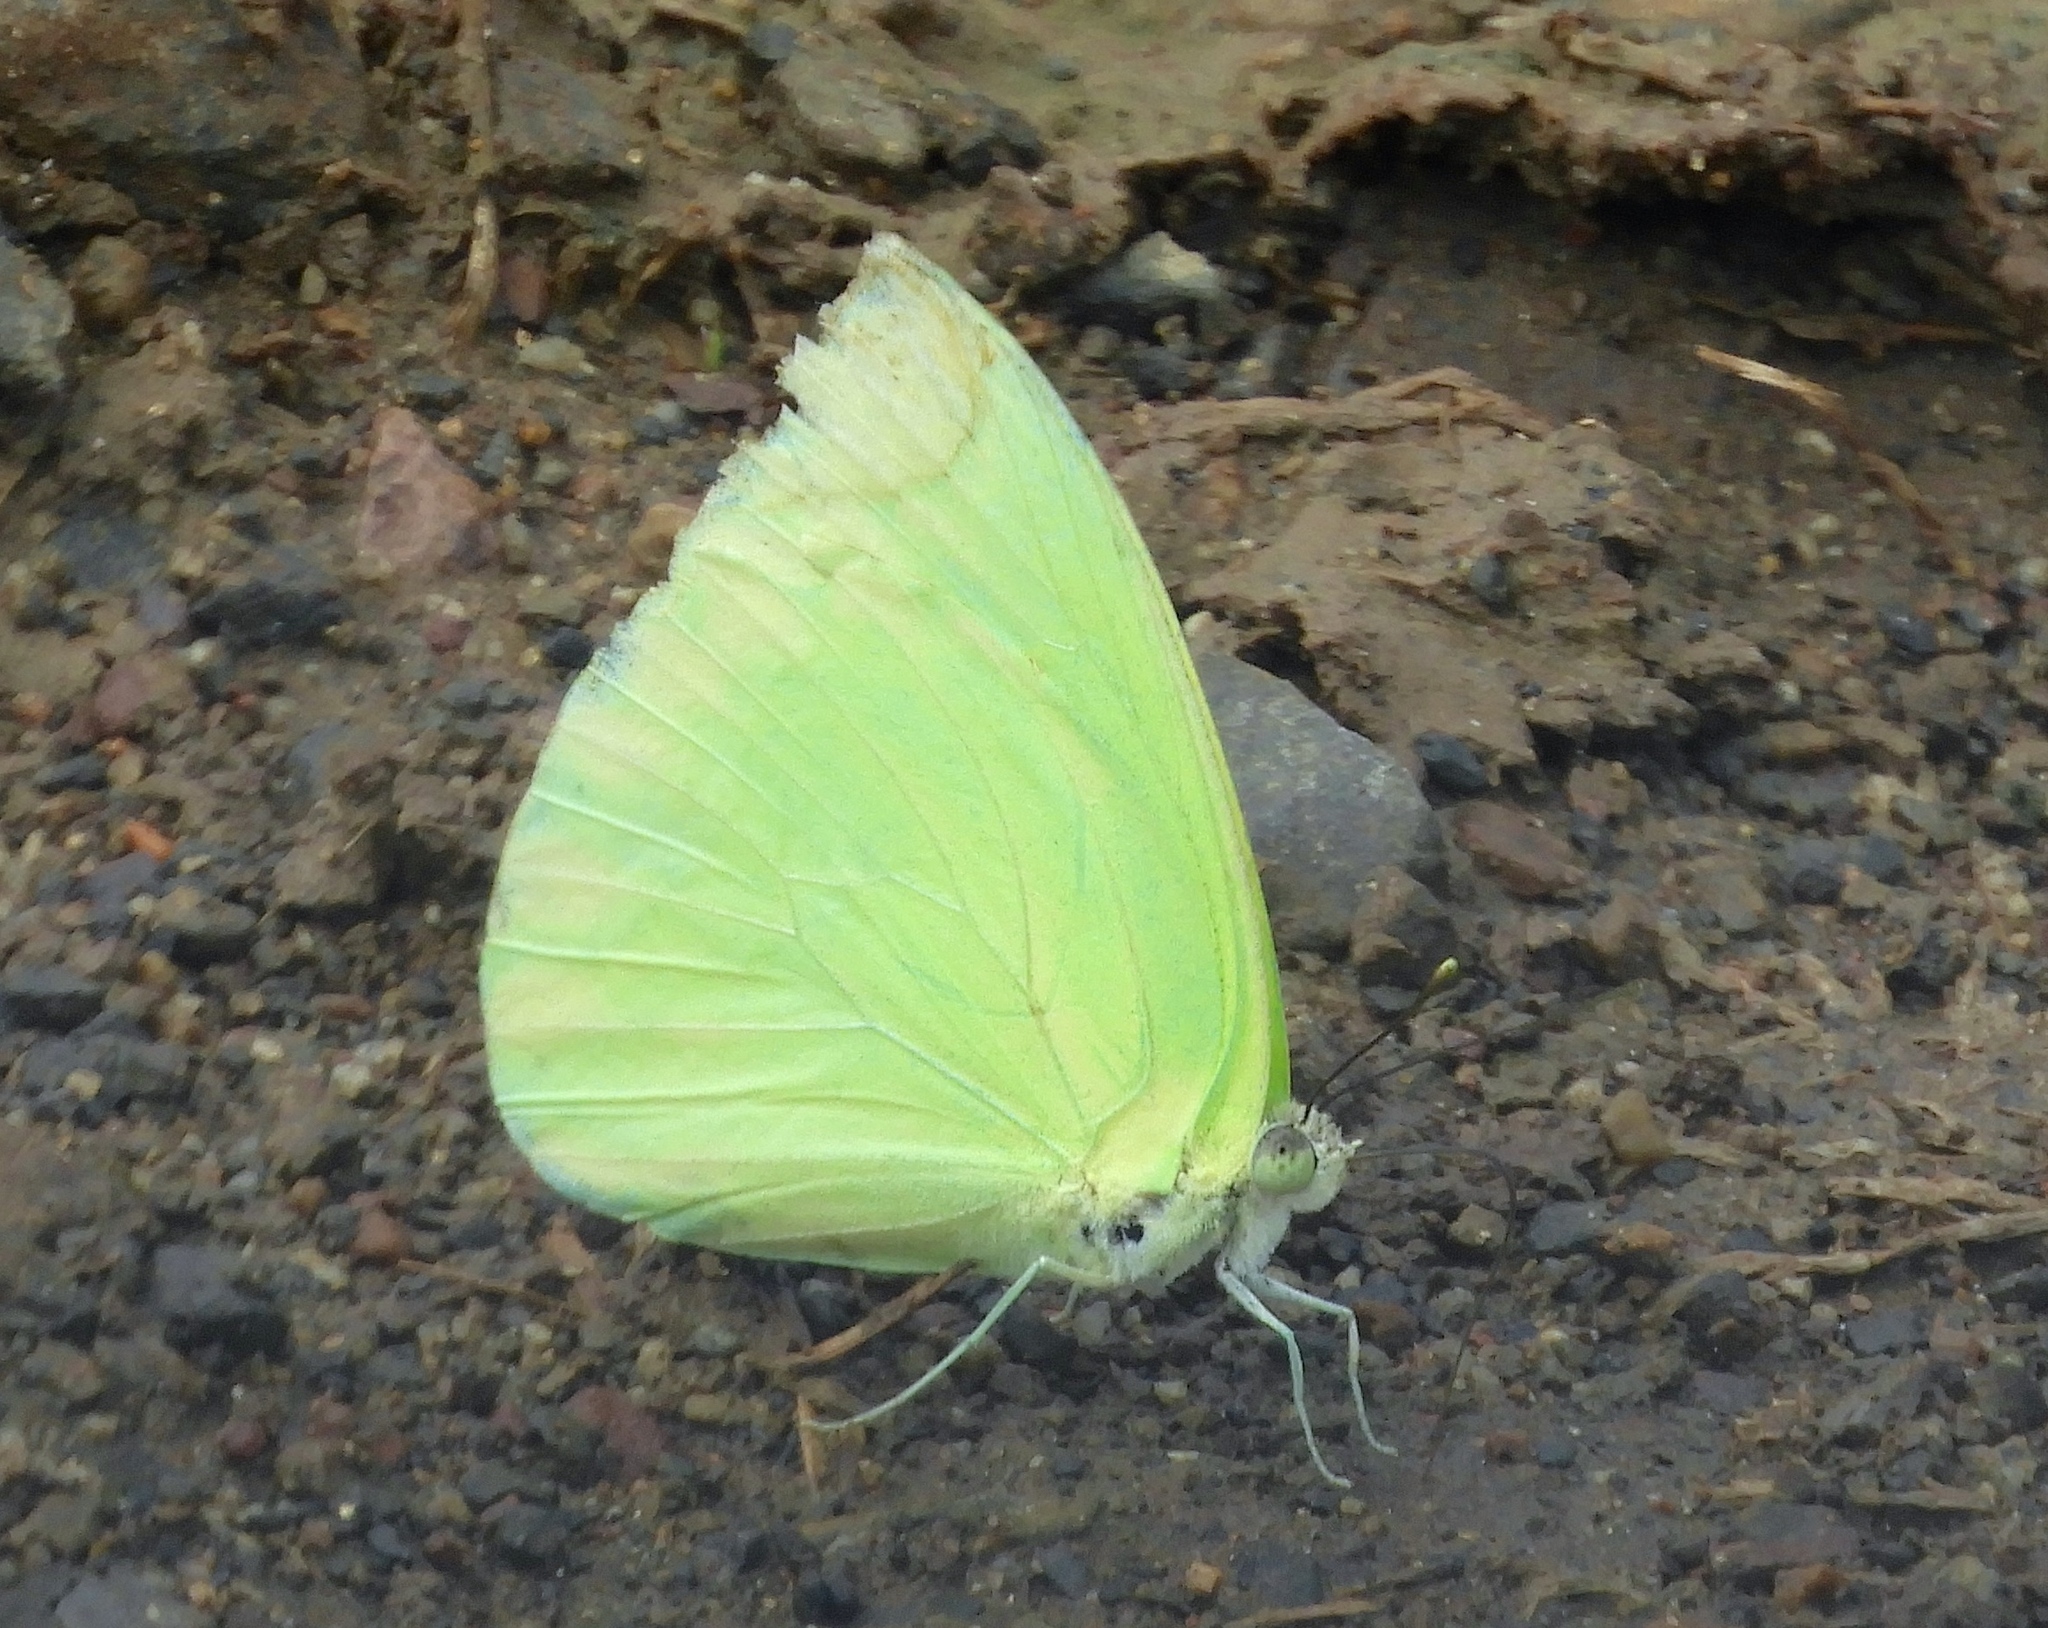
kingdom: Animalia
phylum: Arthropoda
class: Insecta
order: Lepidoptera
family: Pieridae
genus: Aphrissa
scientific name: Aphrissa statira
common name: Statira sulphur
